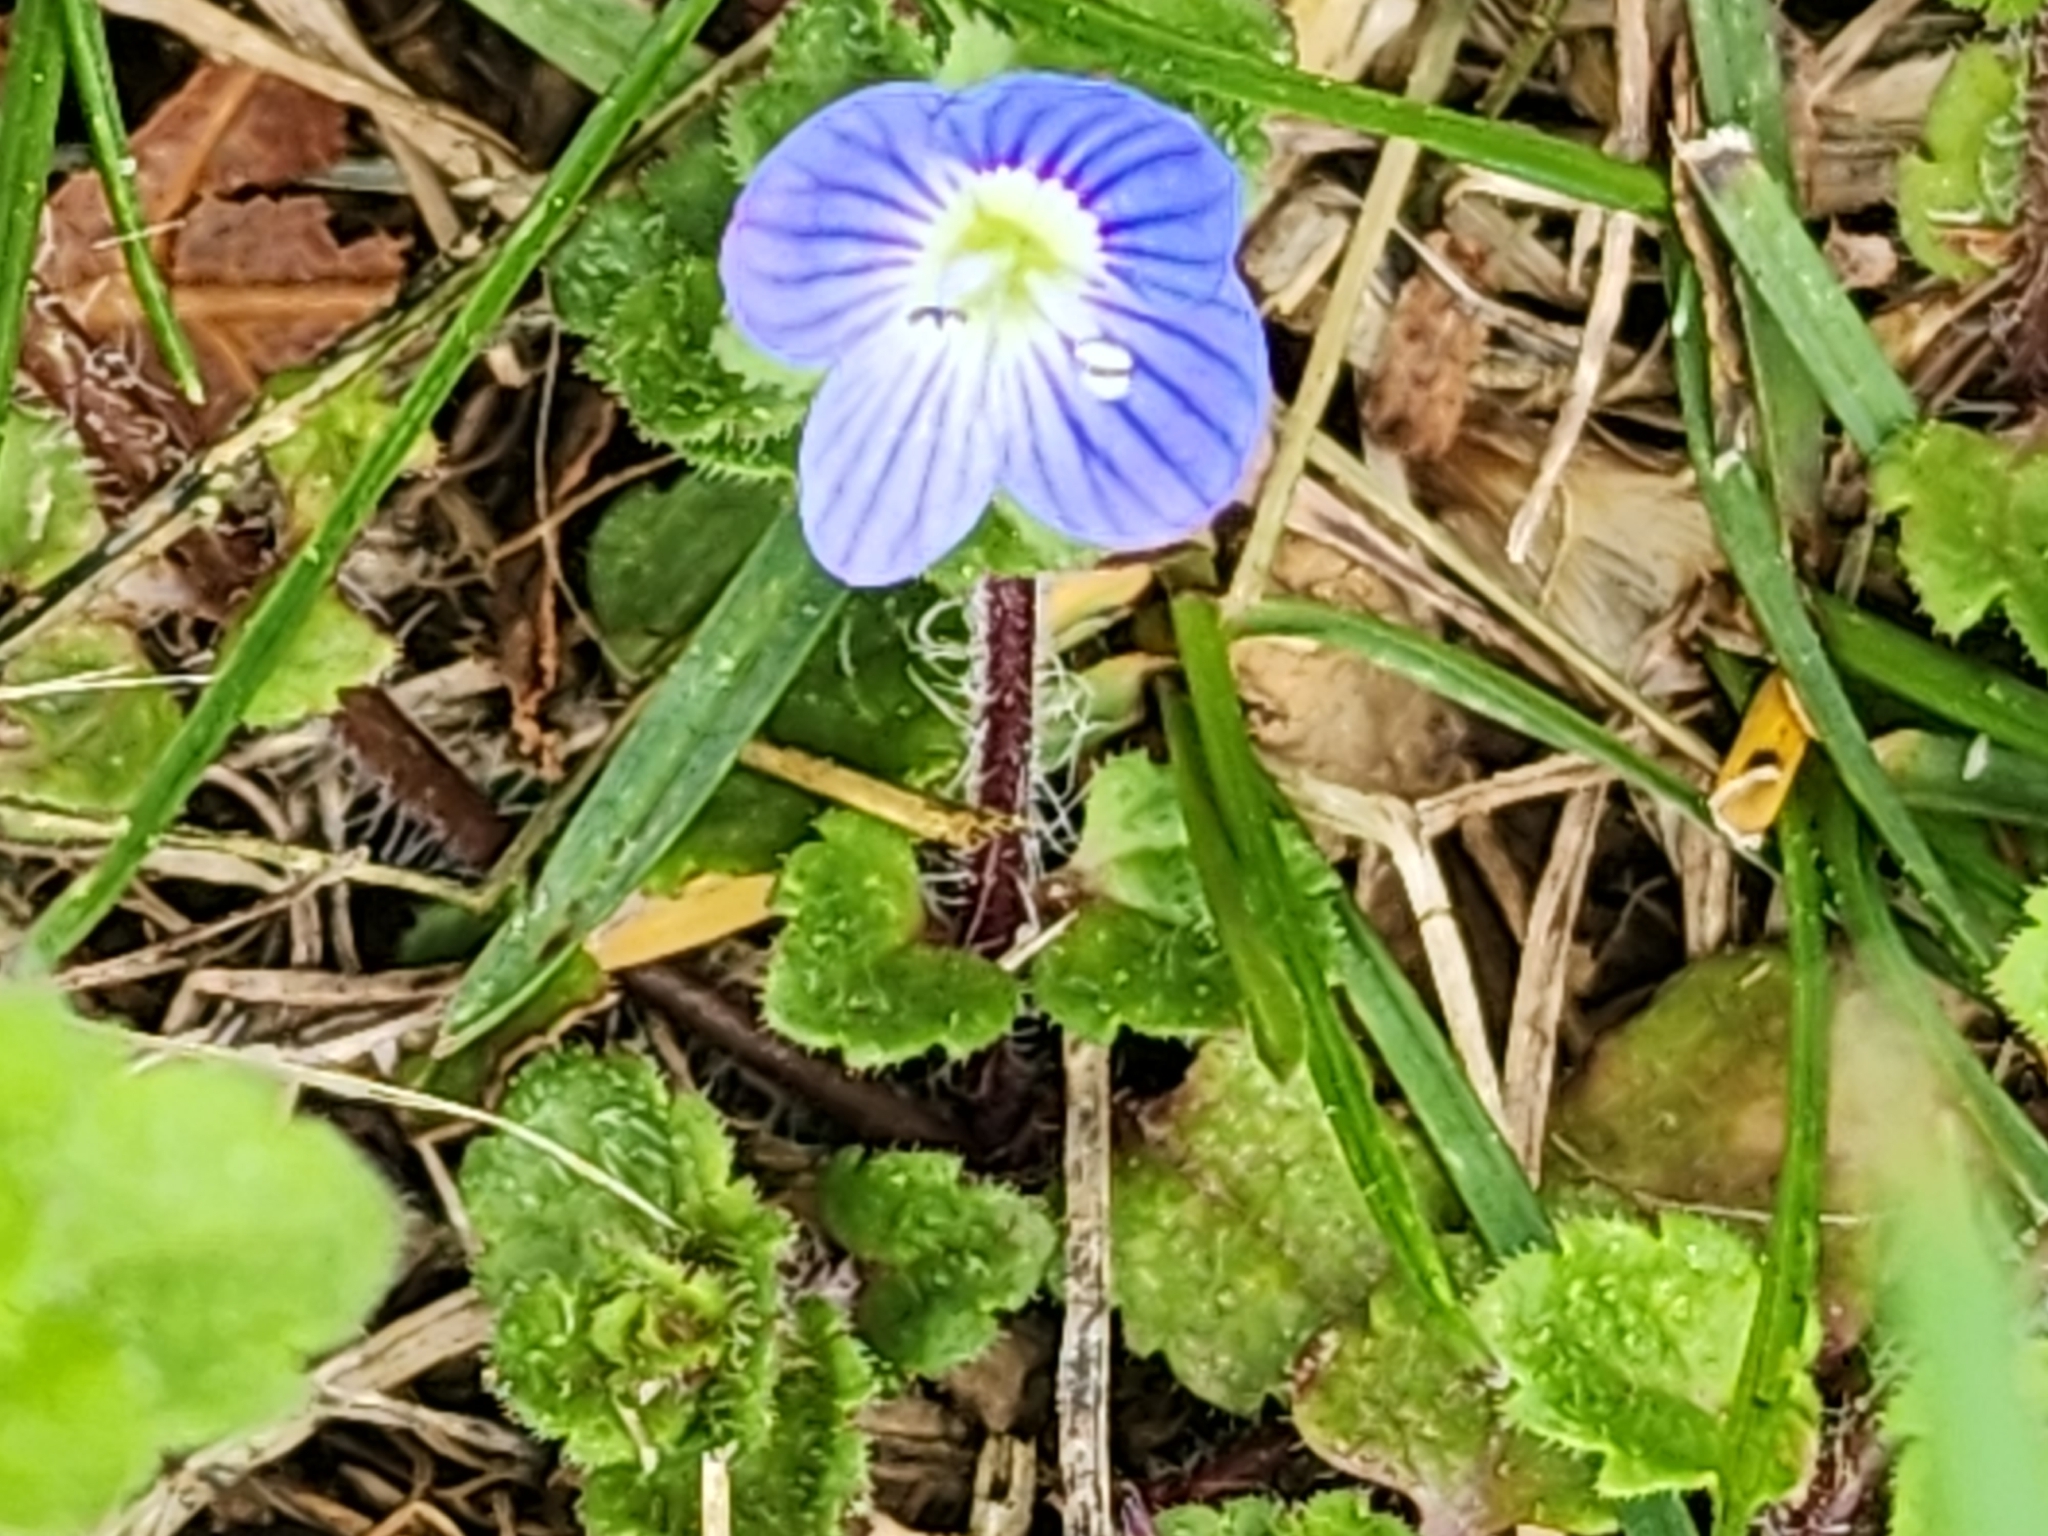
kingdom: Plantae
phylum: Tracheophyta
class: Magnoliopsida
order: Lamiales
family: Plantaginaceae
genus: Veronica
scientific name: Veronica persica
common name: Common field-speedwell
